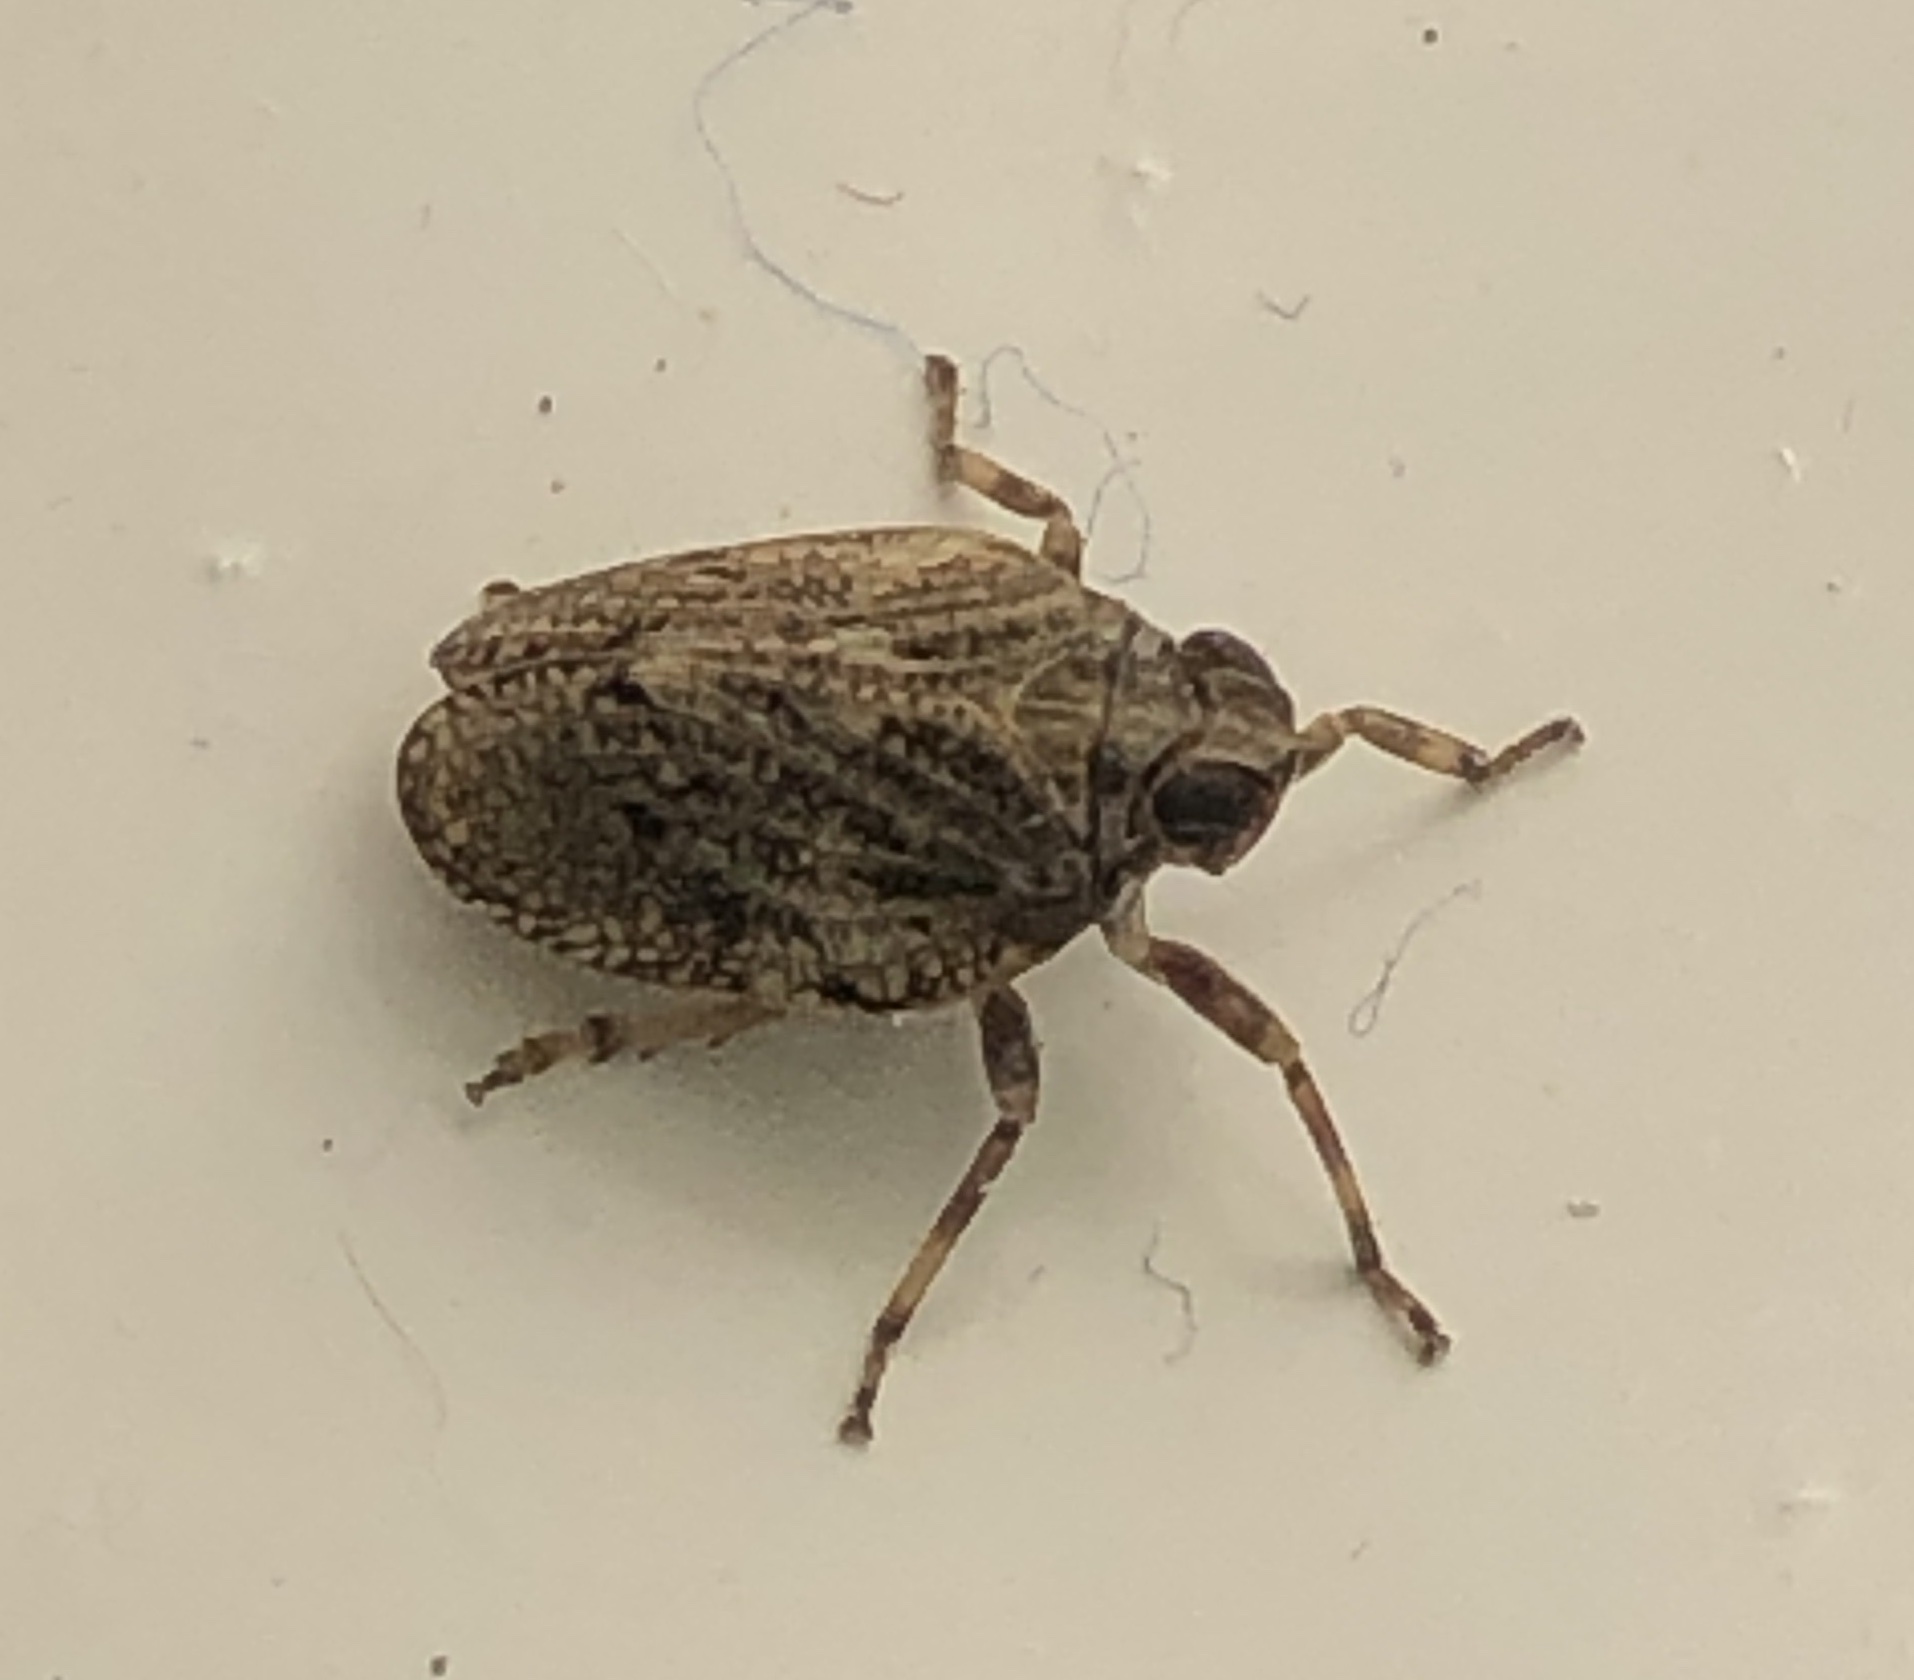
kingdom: Animalia
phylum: Arthropoda
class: Insecta
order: Hemiptera
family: Issidae
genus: Issus
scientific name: Issus coleoptratus
